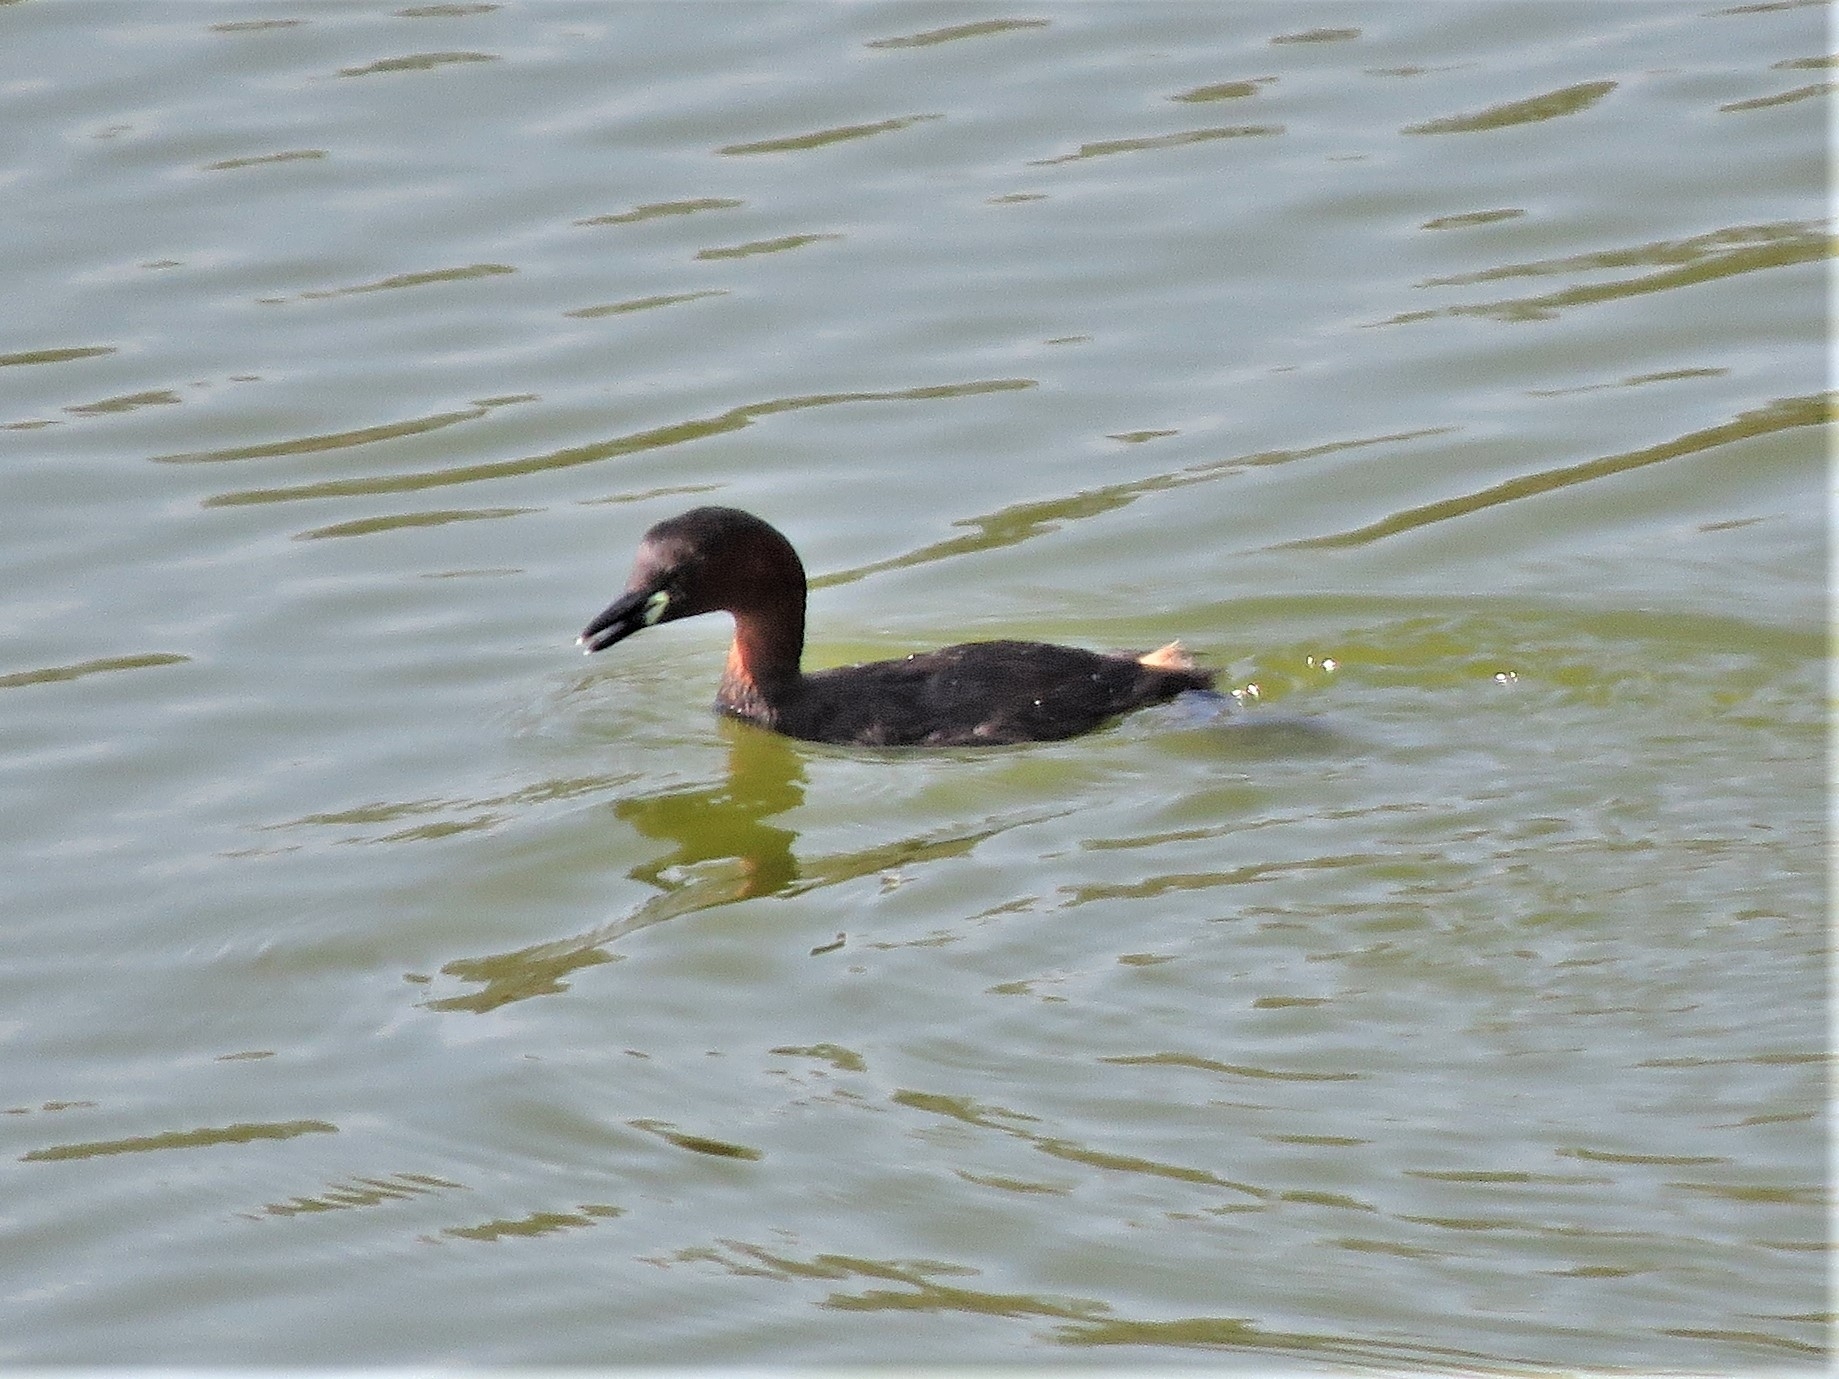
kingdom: Animalia
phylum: Chordata
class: Aves
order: Podicipediformes
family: Podicipedidae
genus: Tachybaptus
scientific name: Tachybaptus ruficollis
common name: Little grebe
